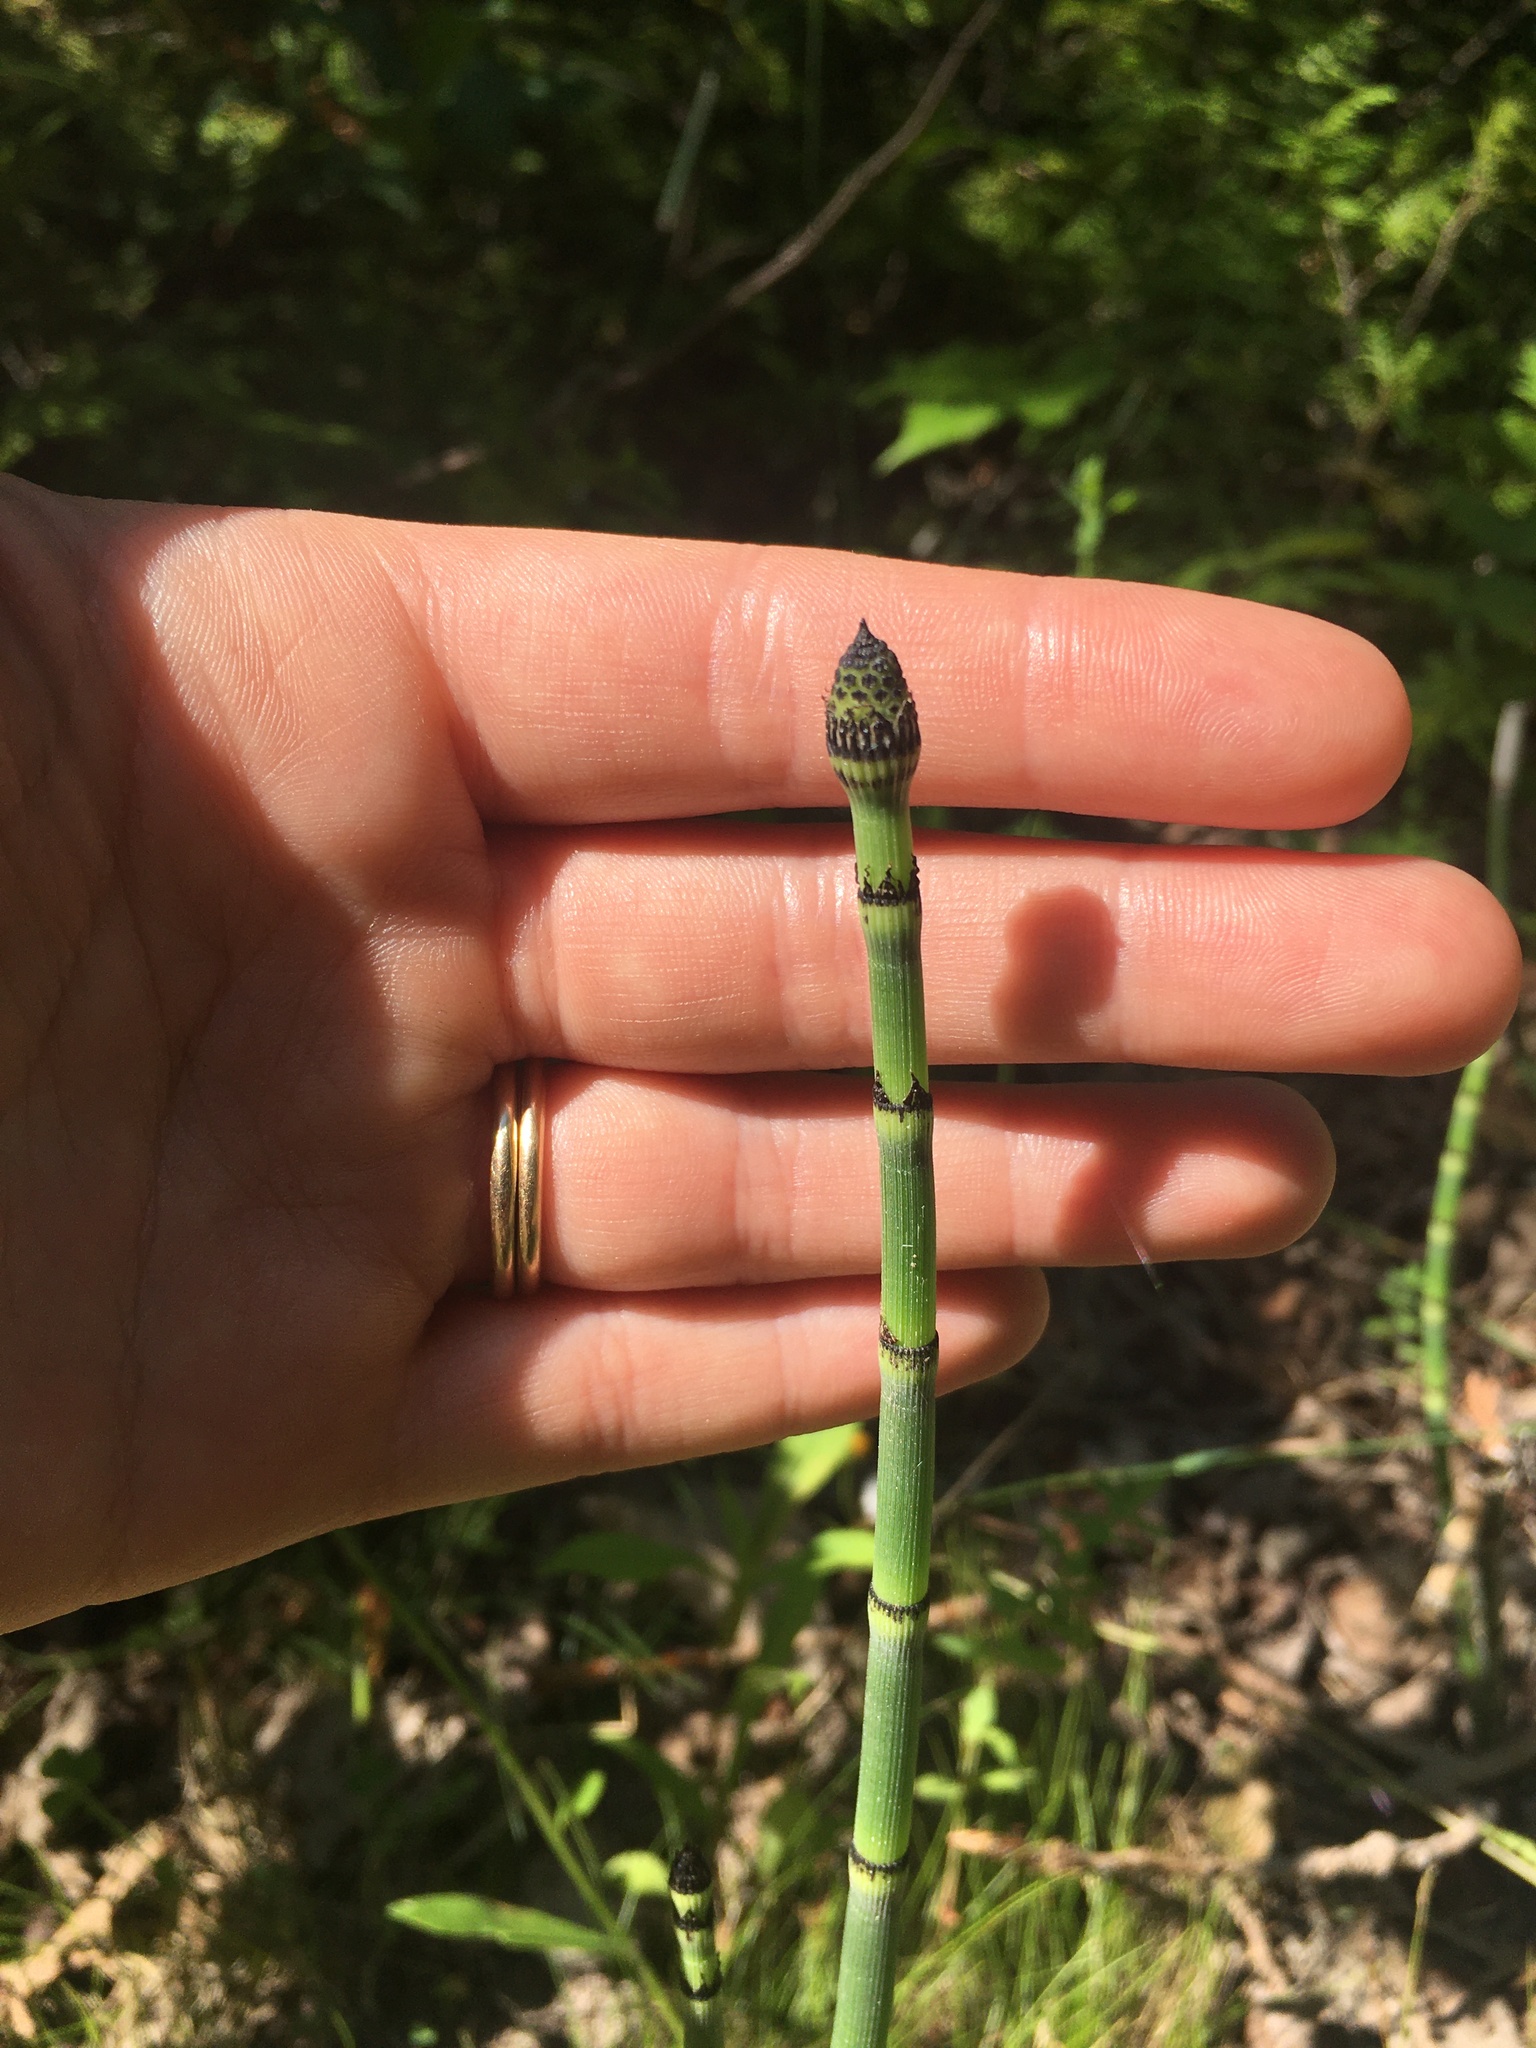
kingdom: Plantae
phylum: Tracheophyta
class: Polypodiopsida
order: Equisetales
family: Equisetaceae
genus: Equisetum
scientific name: Equisetum praealtum
